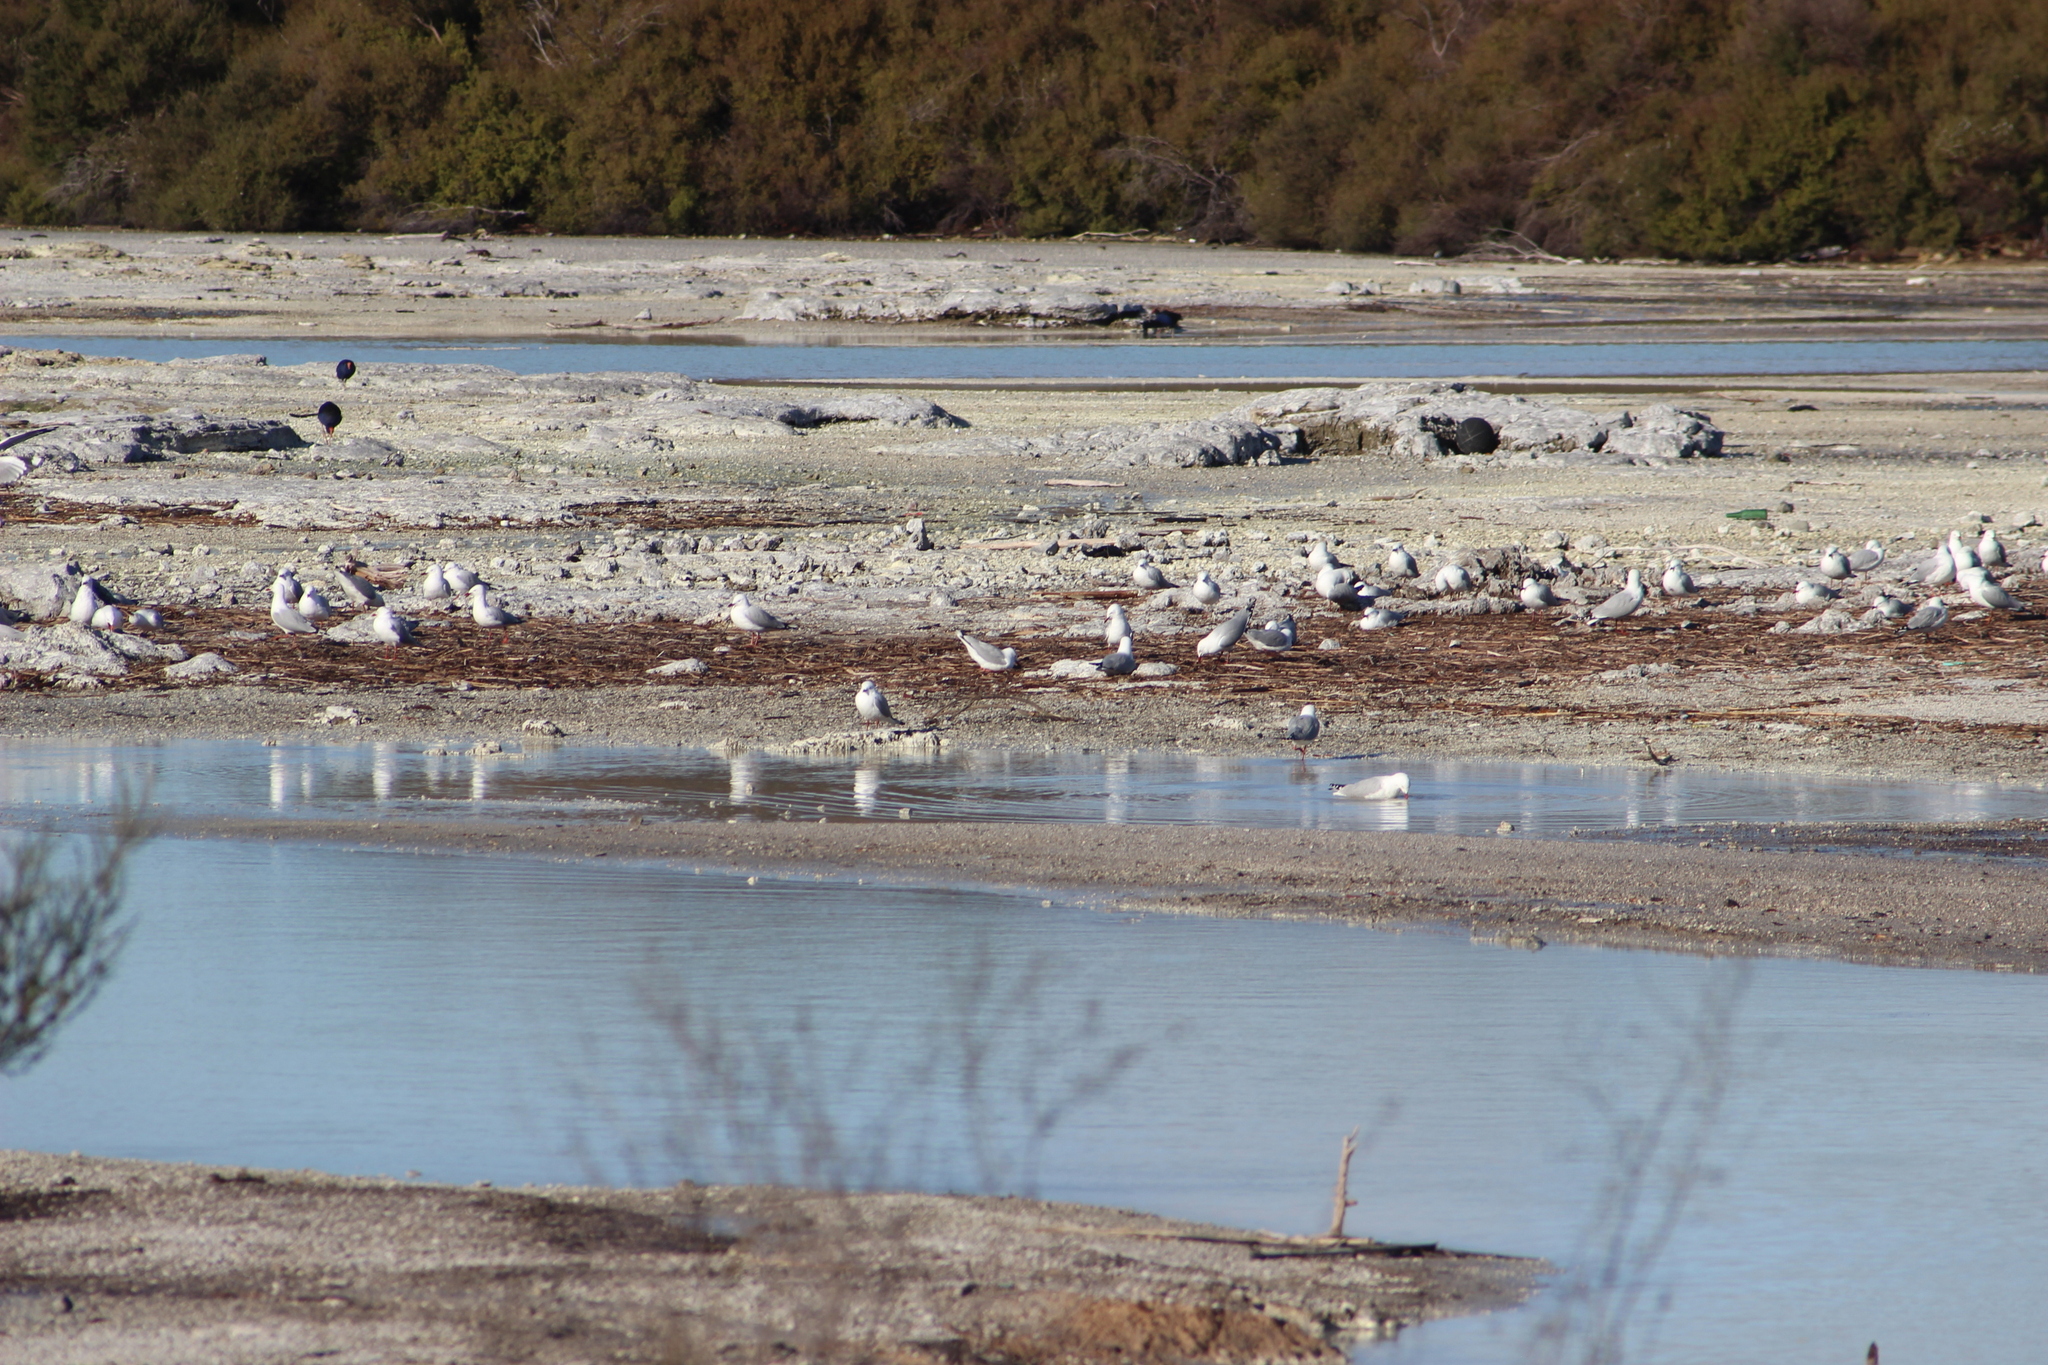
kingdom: Animalia
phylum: Chordata
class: Aves
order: Charadriiformes
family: Laridae
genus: Chroicocephalus
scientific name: Chroicocephalus novaehollandiae
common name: Silver gull
